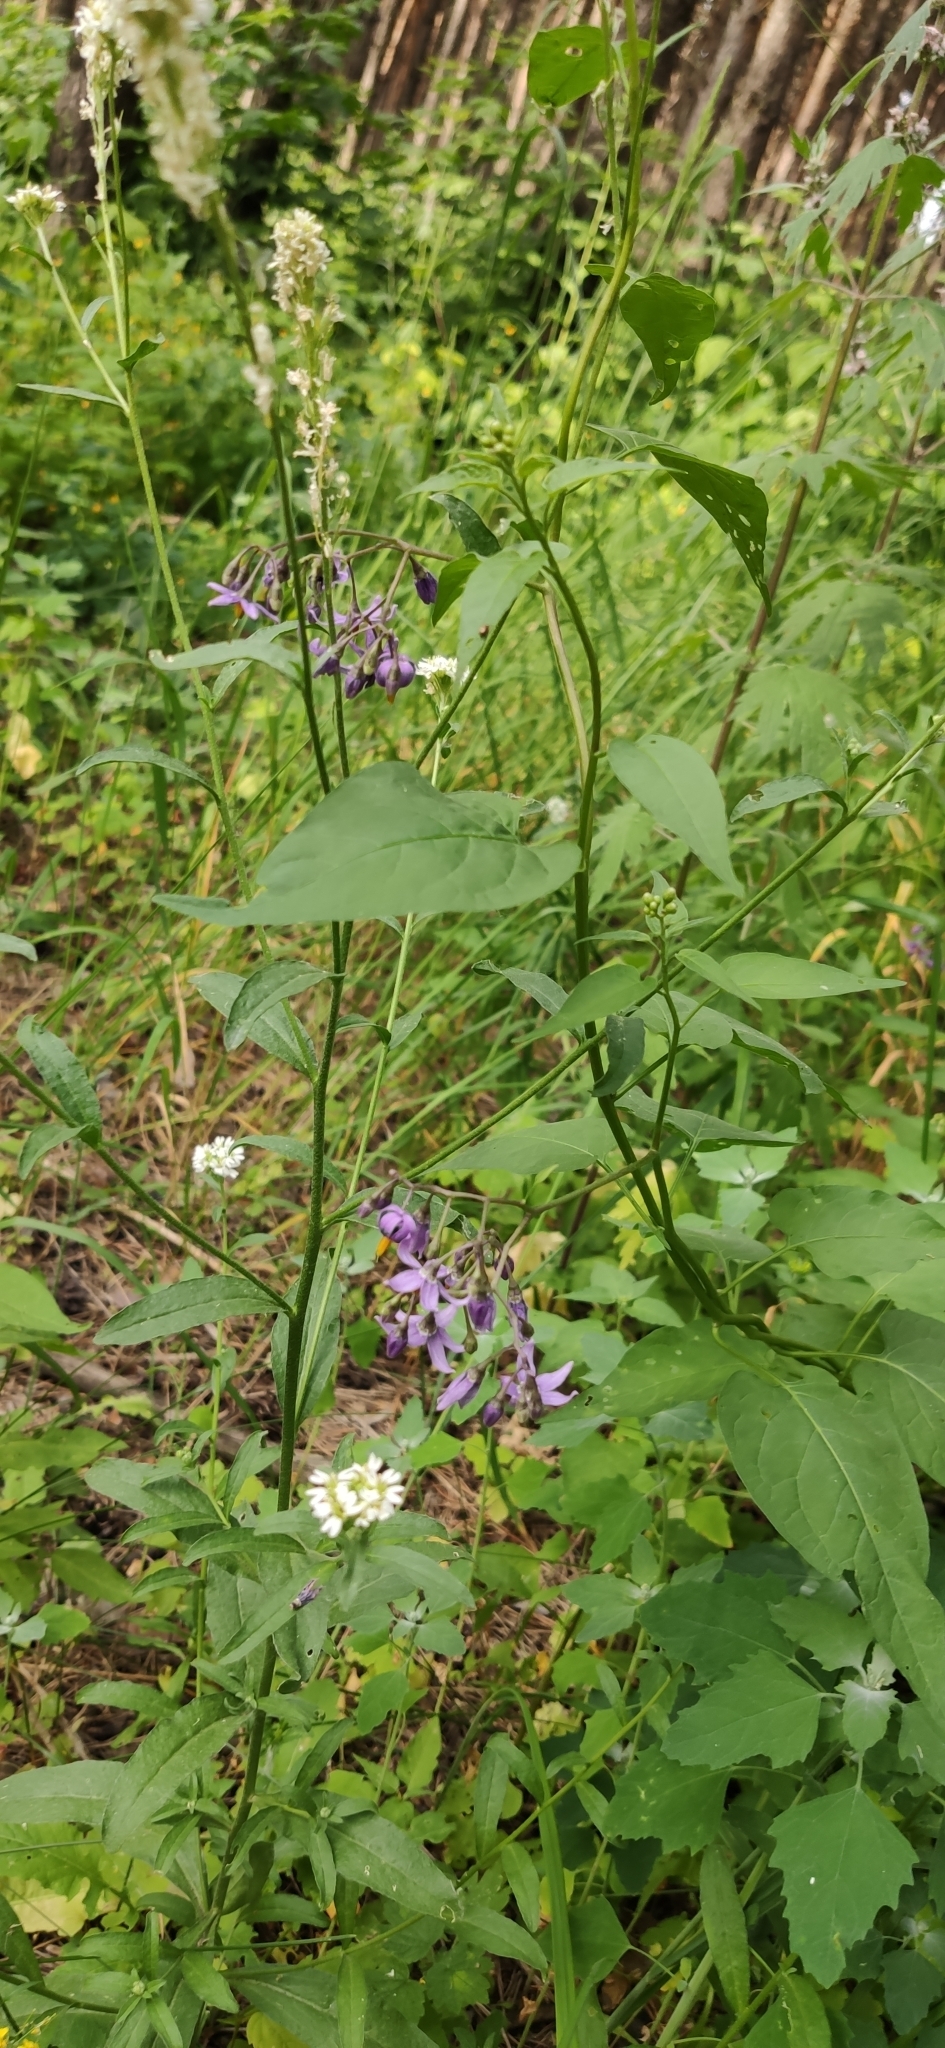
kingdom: Plantae
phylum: Tracheophyta
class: Magnoliopsida
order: Solanales
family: Solanaceae
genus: Solanum
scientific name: Solanum dulcamara
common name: Climbing nightshade
